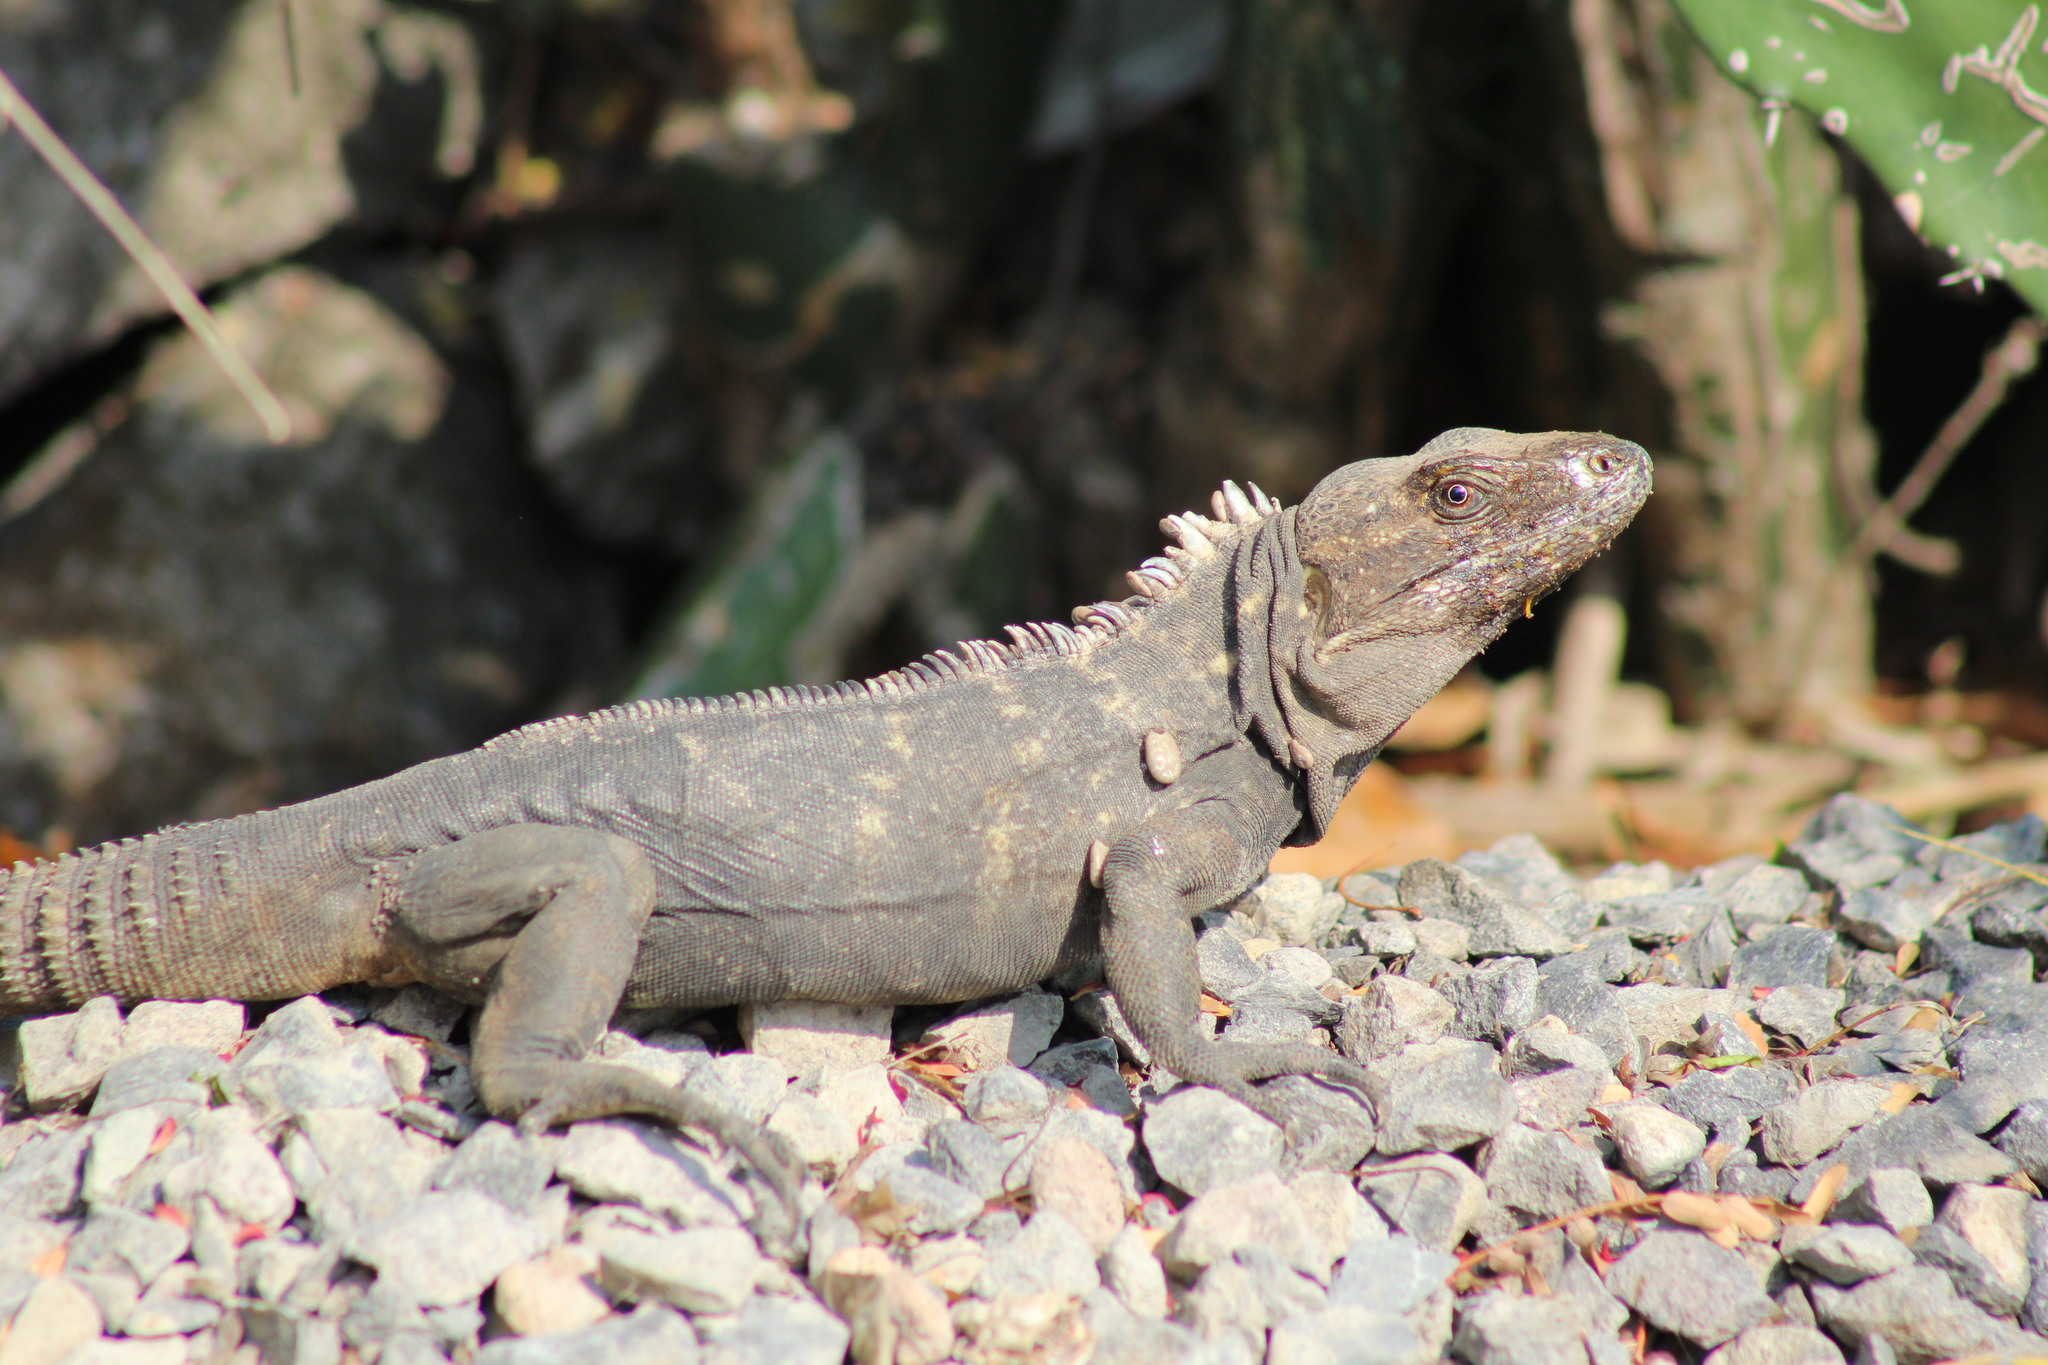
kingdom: Animalia
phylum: Chordata
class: Squamata
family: Iguanidae
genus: Ctenosaura
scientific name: Ctenosaura acanthura
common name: Northeastern spinytail iguana
